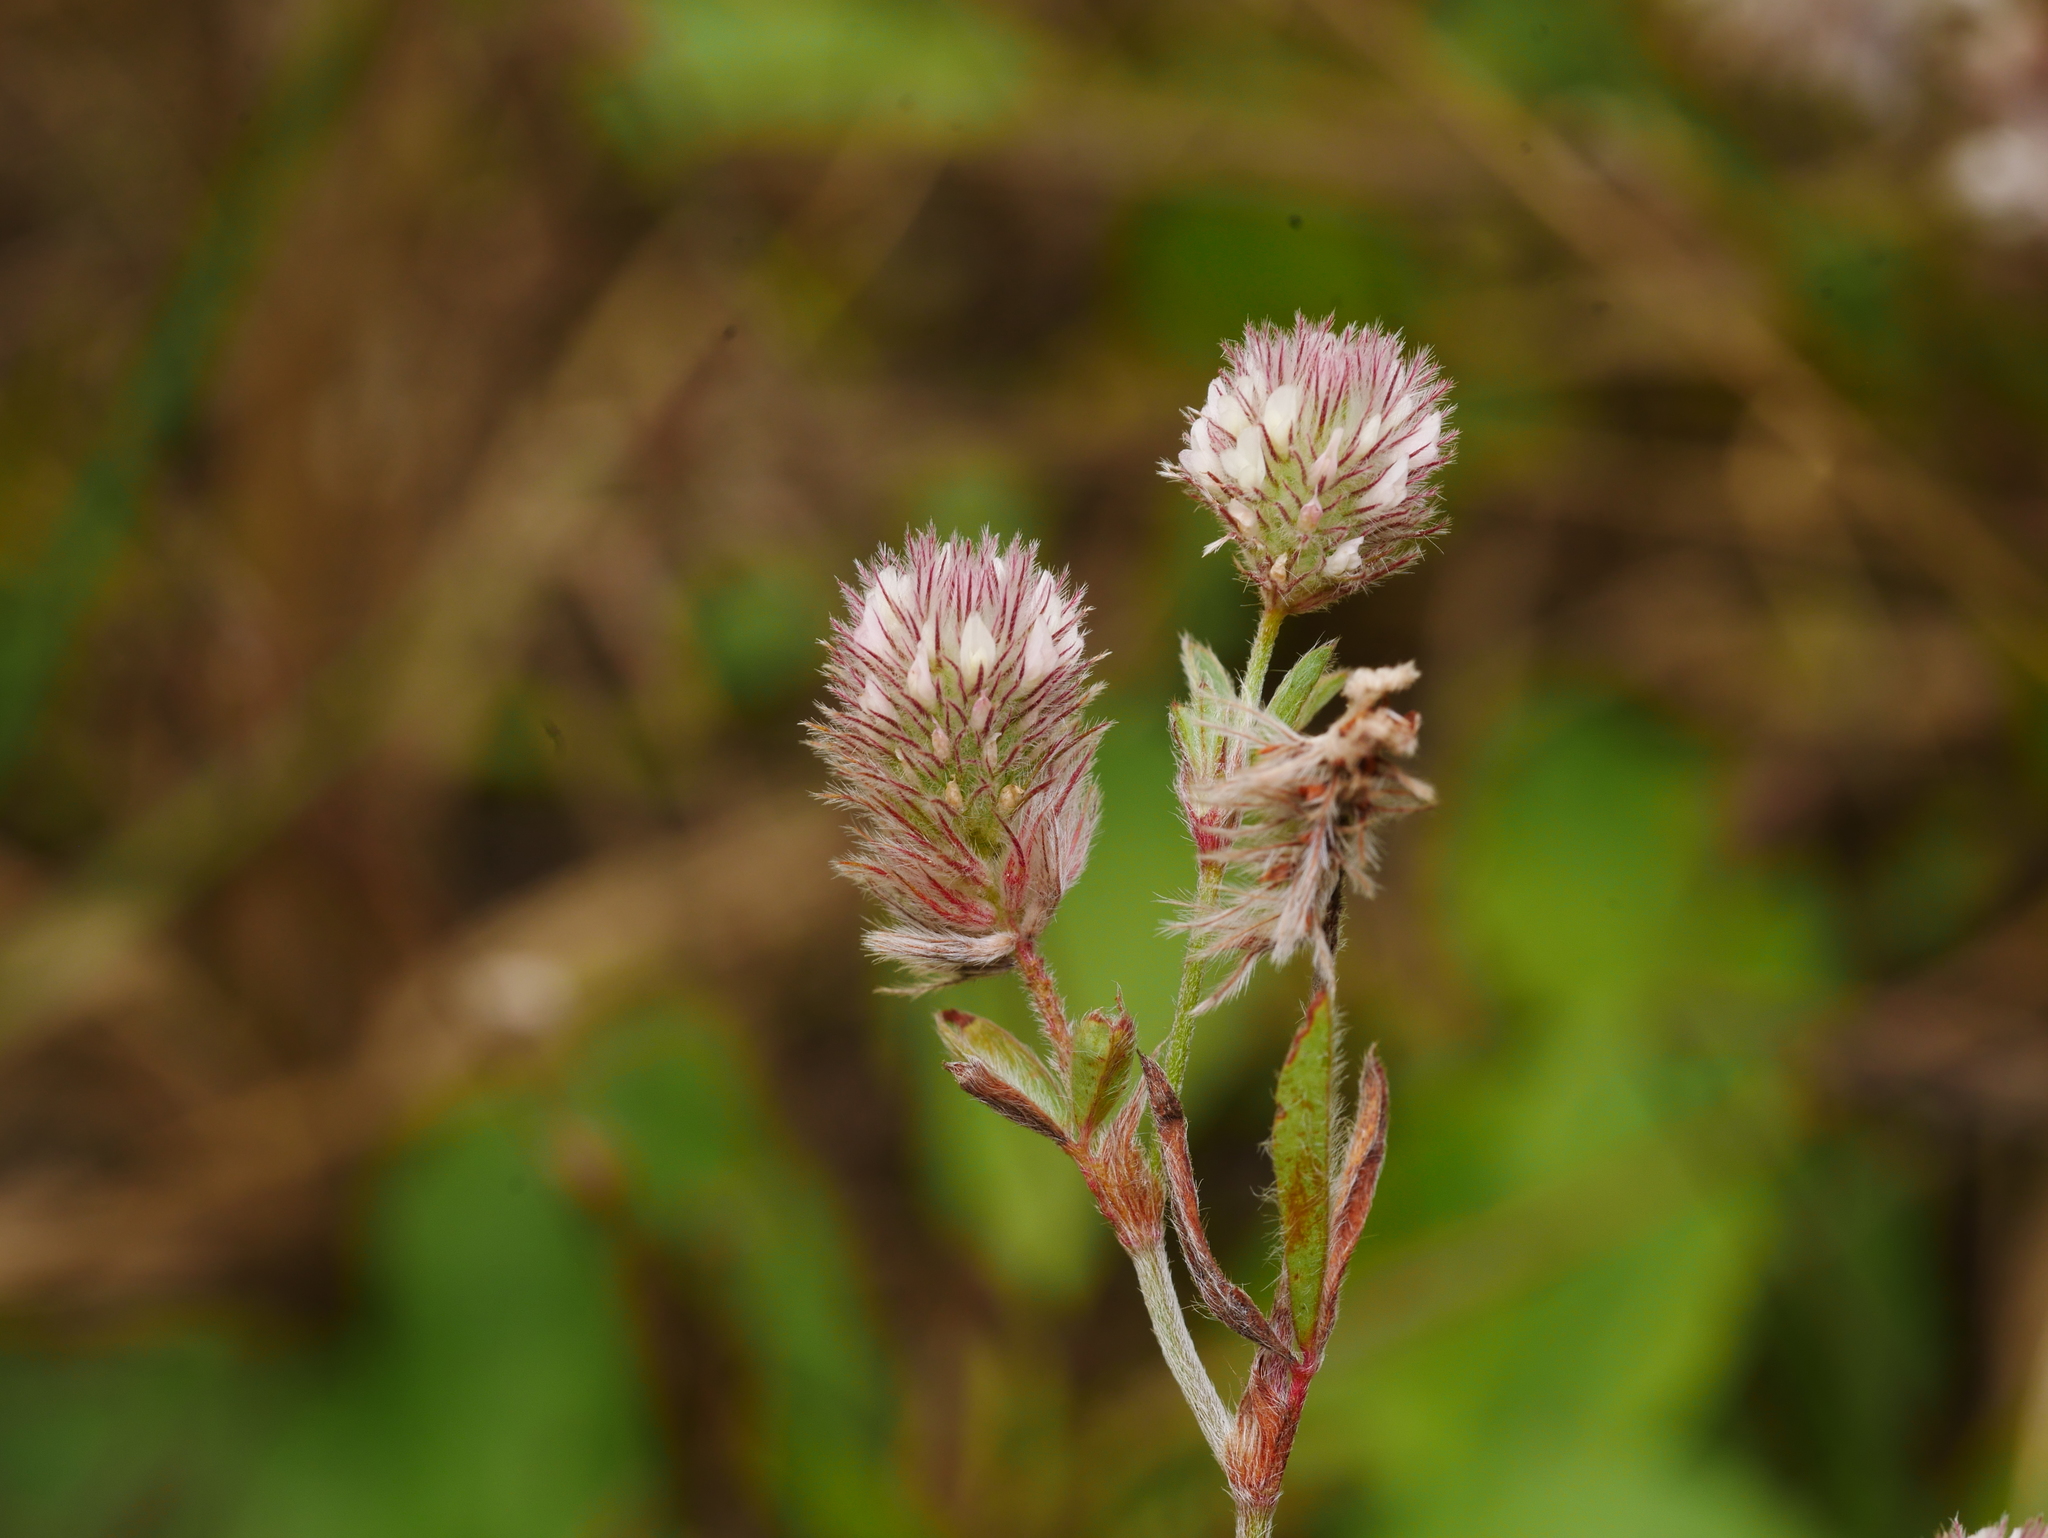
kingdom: Plantae
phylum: Tracheophyta
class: Magnoliopsida
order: Fabales
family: Fabaceae
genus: Trifolium
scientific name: Trifolium arvense
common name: Hare's-foot clover
